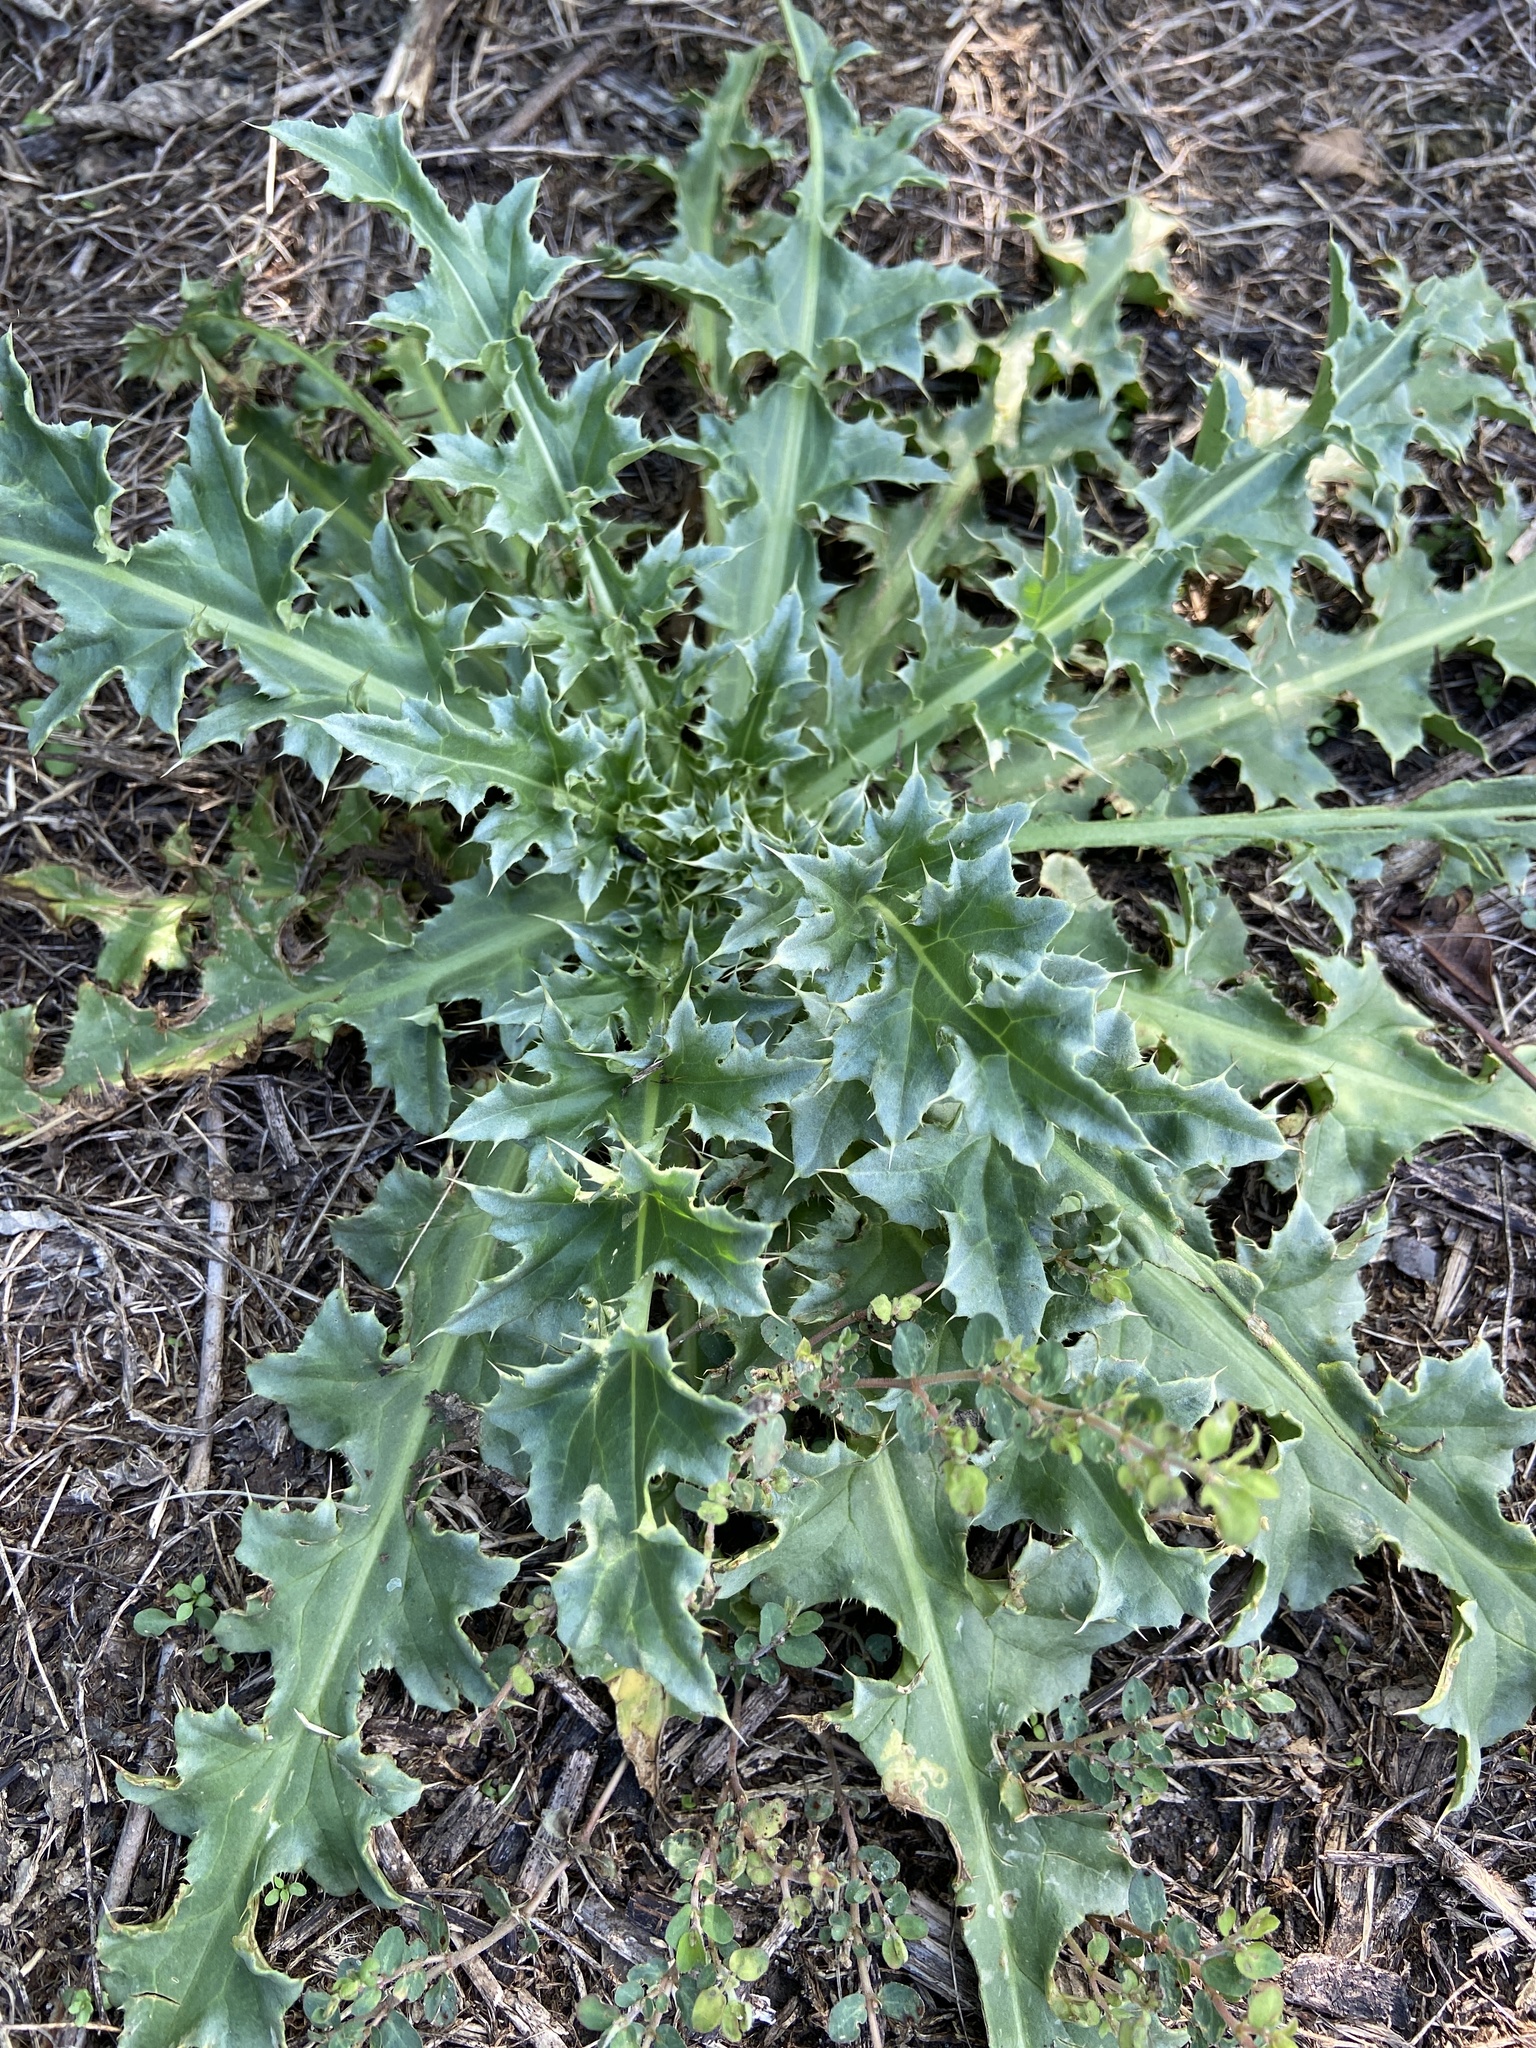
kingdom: Plantae
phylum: Tracheophyta
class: Magnoliopsida
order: Asterales
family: Asteraceae
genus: Carduus
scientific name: Carduus nutans
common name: Musk thistle
